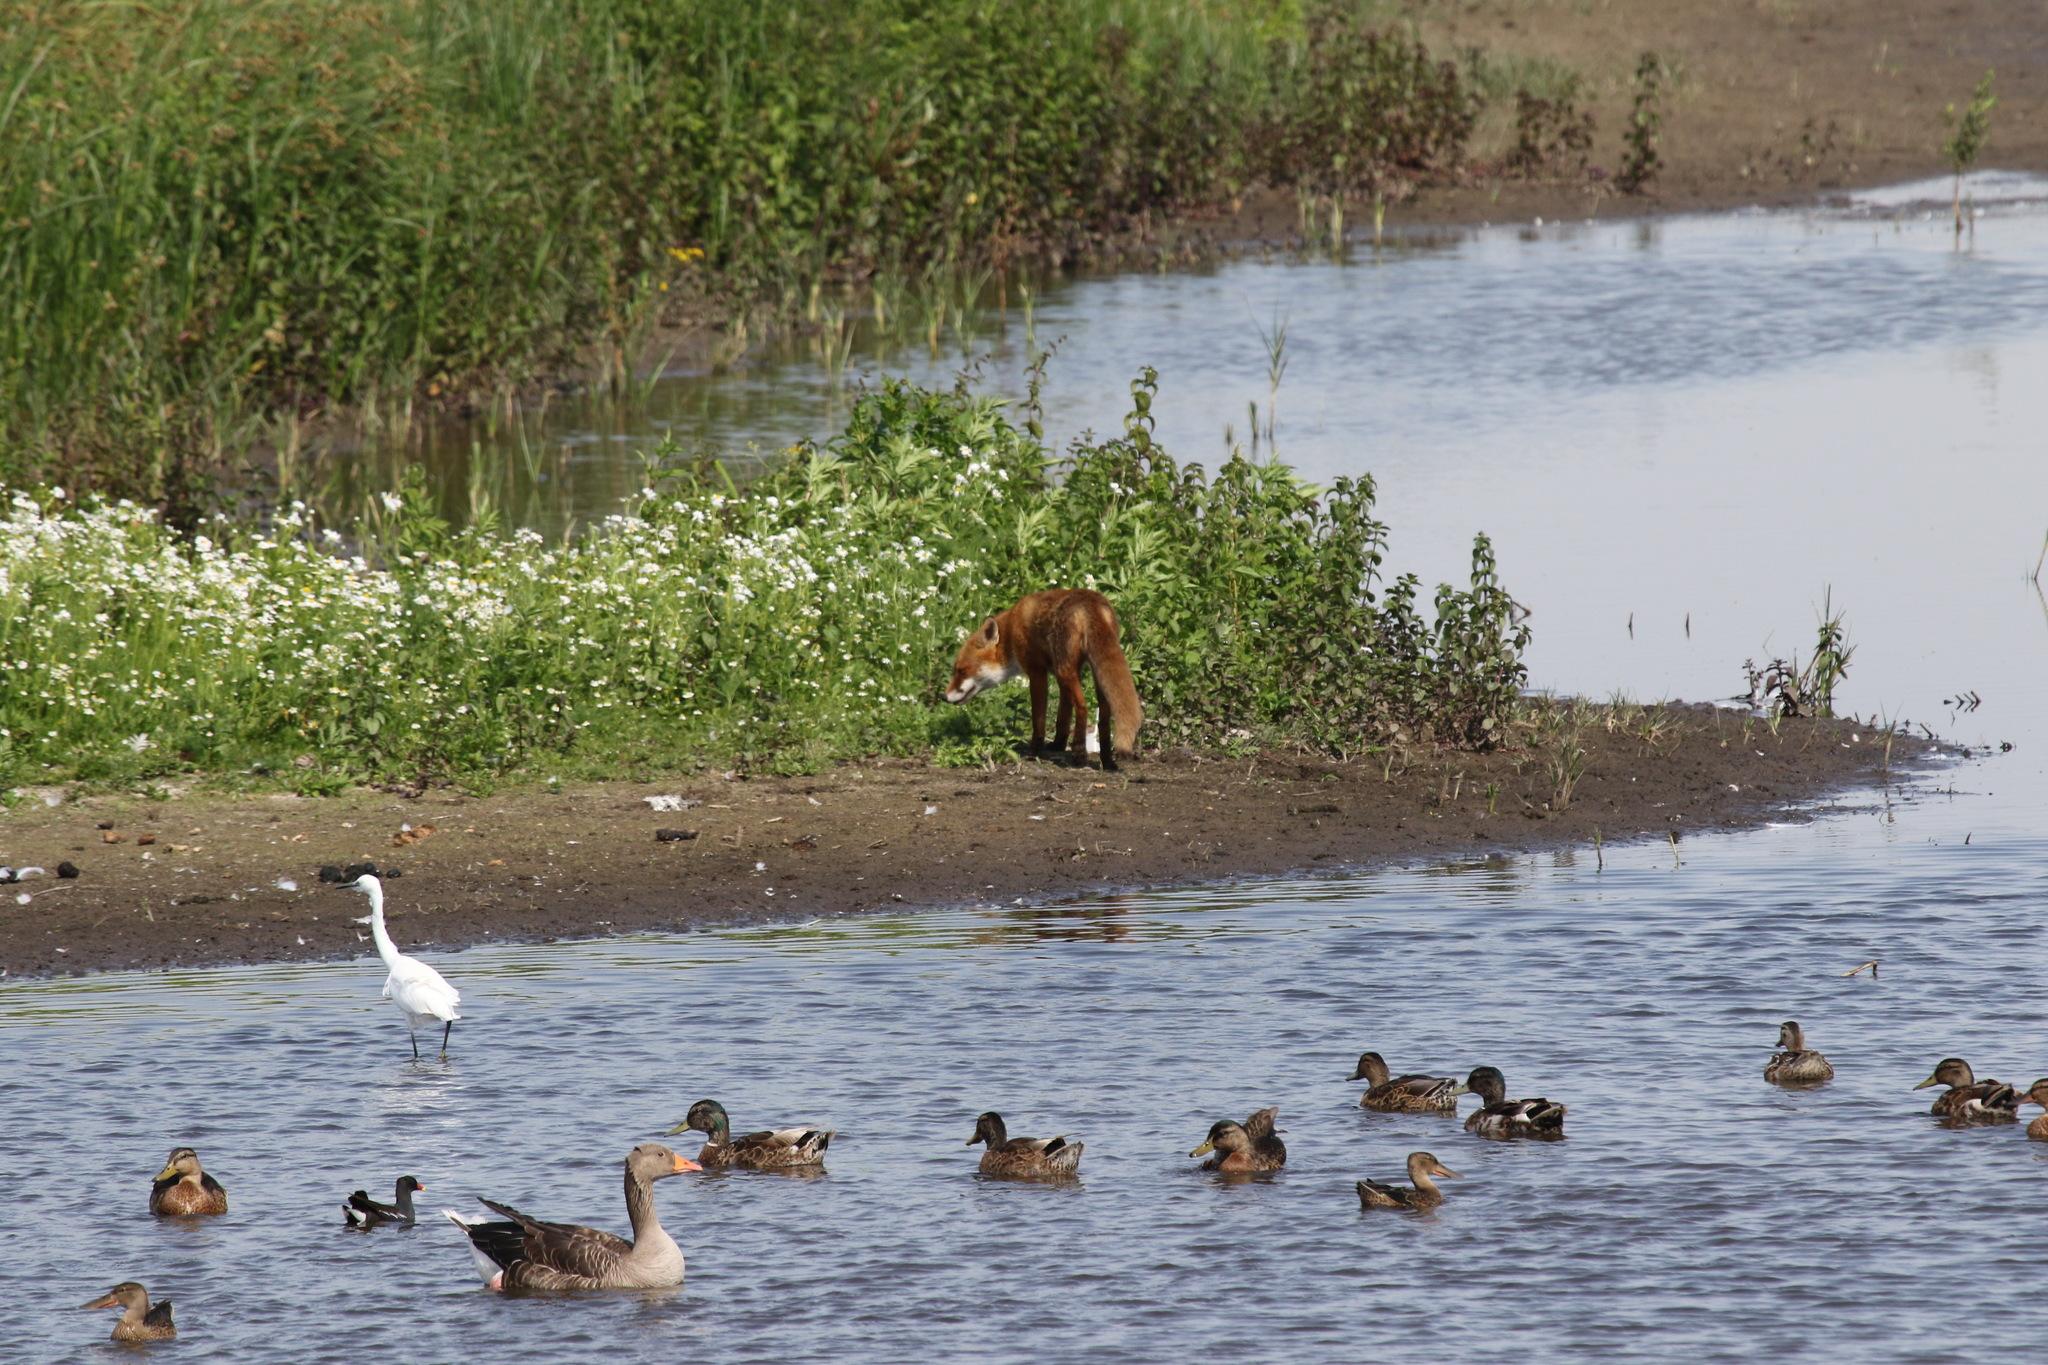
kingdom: Animalia
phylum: Chordata
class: Mammalia
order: Carnivora
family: Canidae
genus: Vulpes
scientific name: Vulpes vulpes
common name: Red fox
